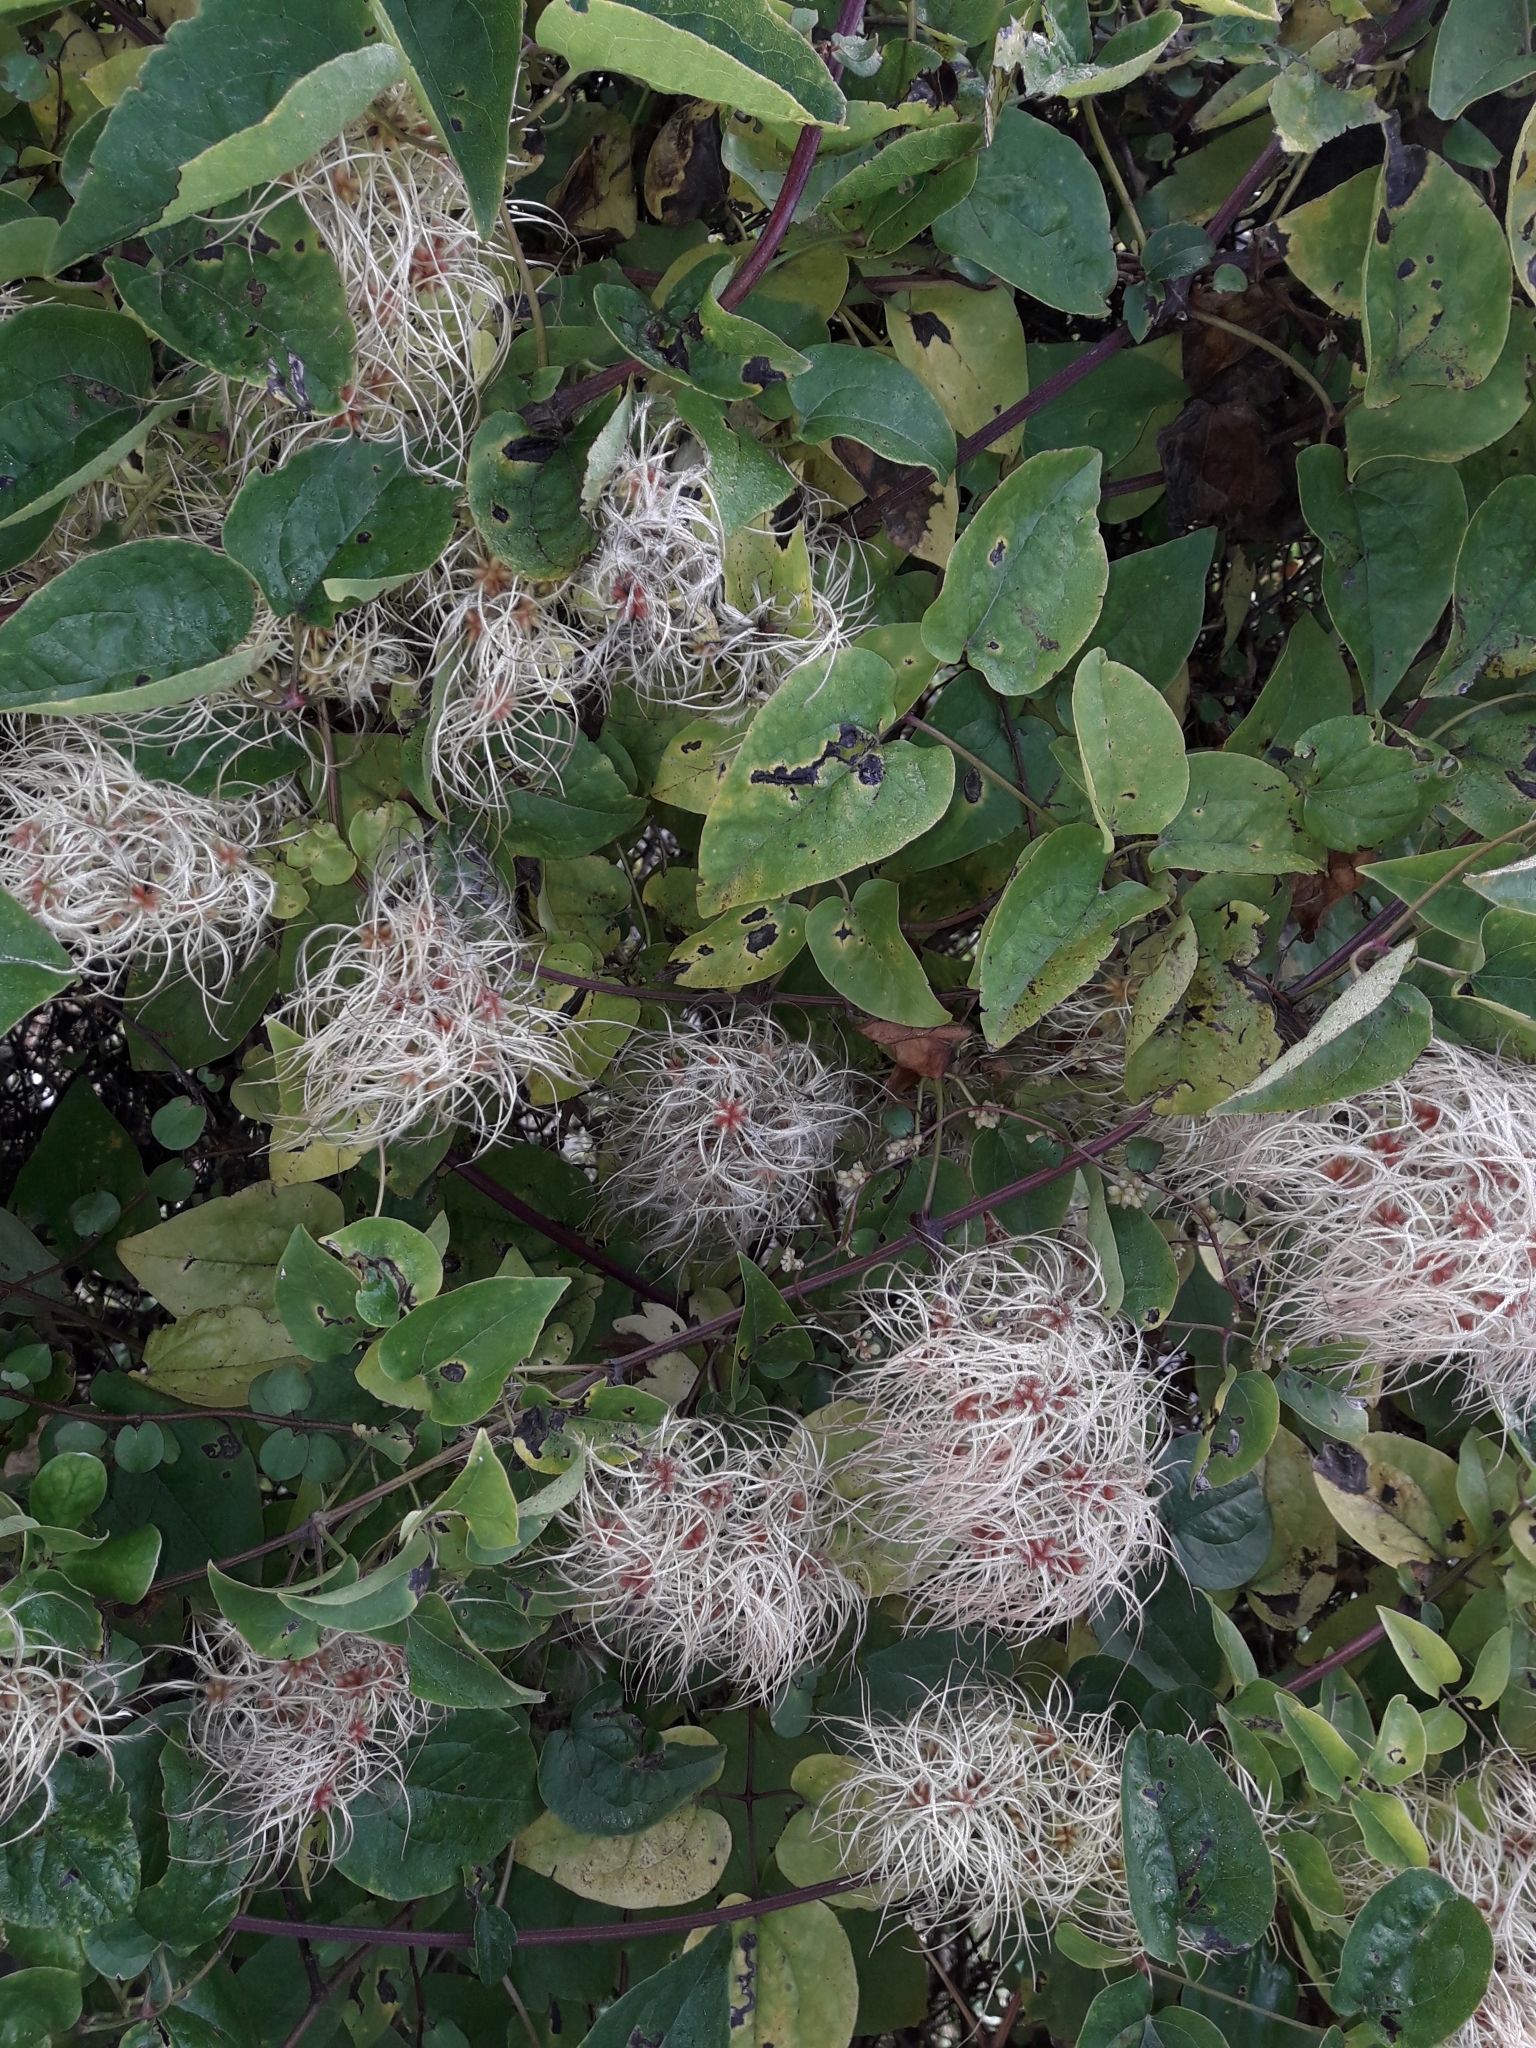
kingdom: Plantae
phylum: Tracheophyta
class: Magnoliopsida
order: Ranunculales
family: Ranunculaceae
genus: Clematis
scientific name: Clematis vitalba
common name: Evergreen clematis
